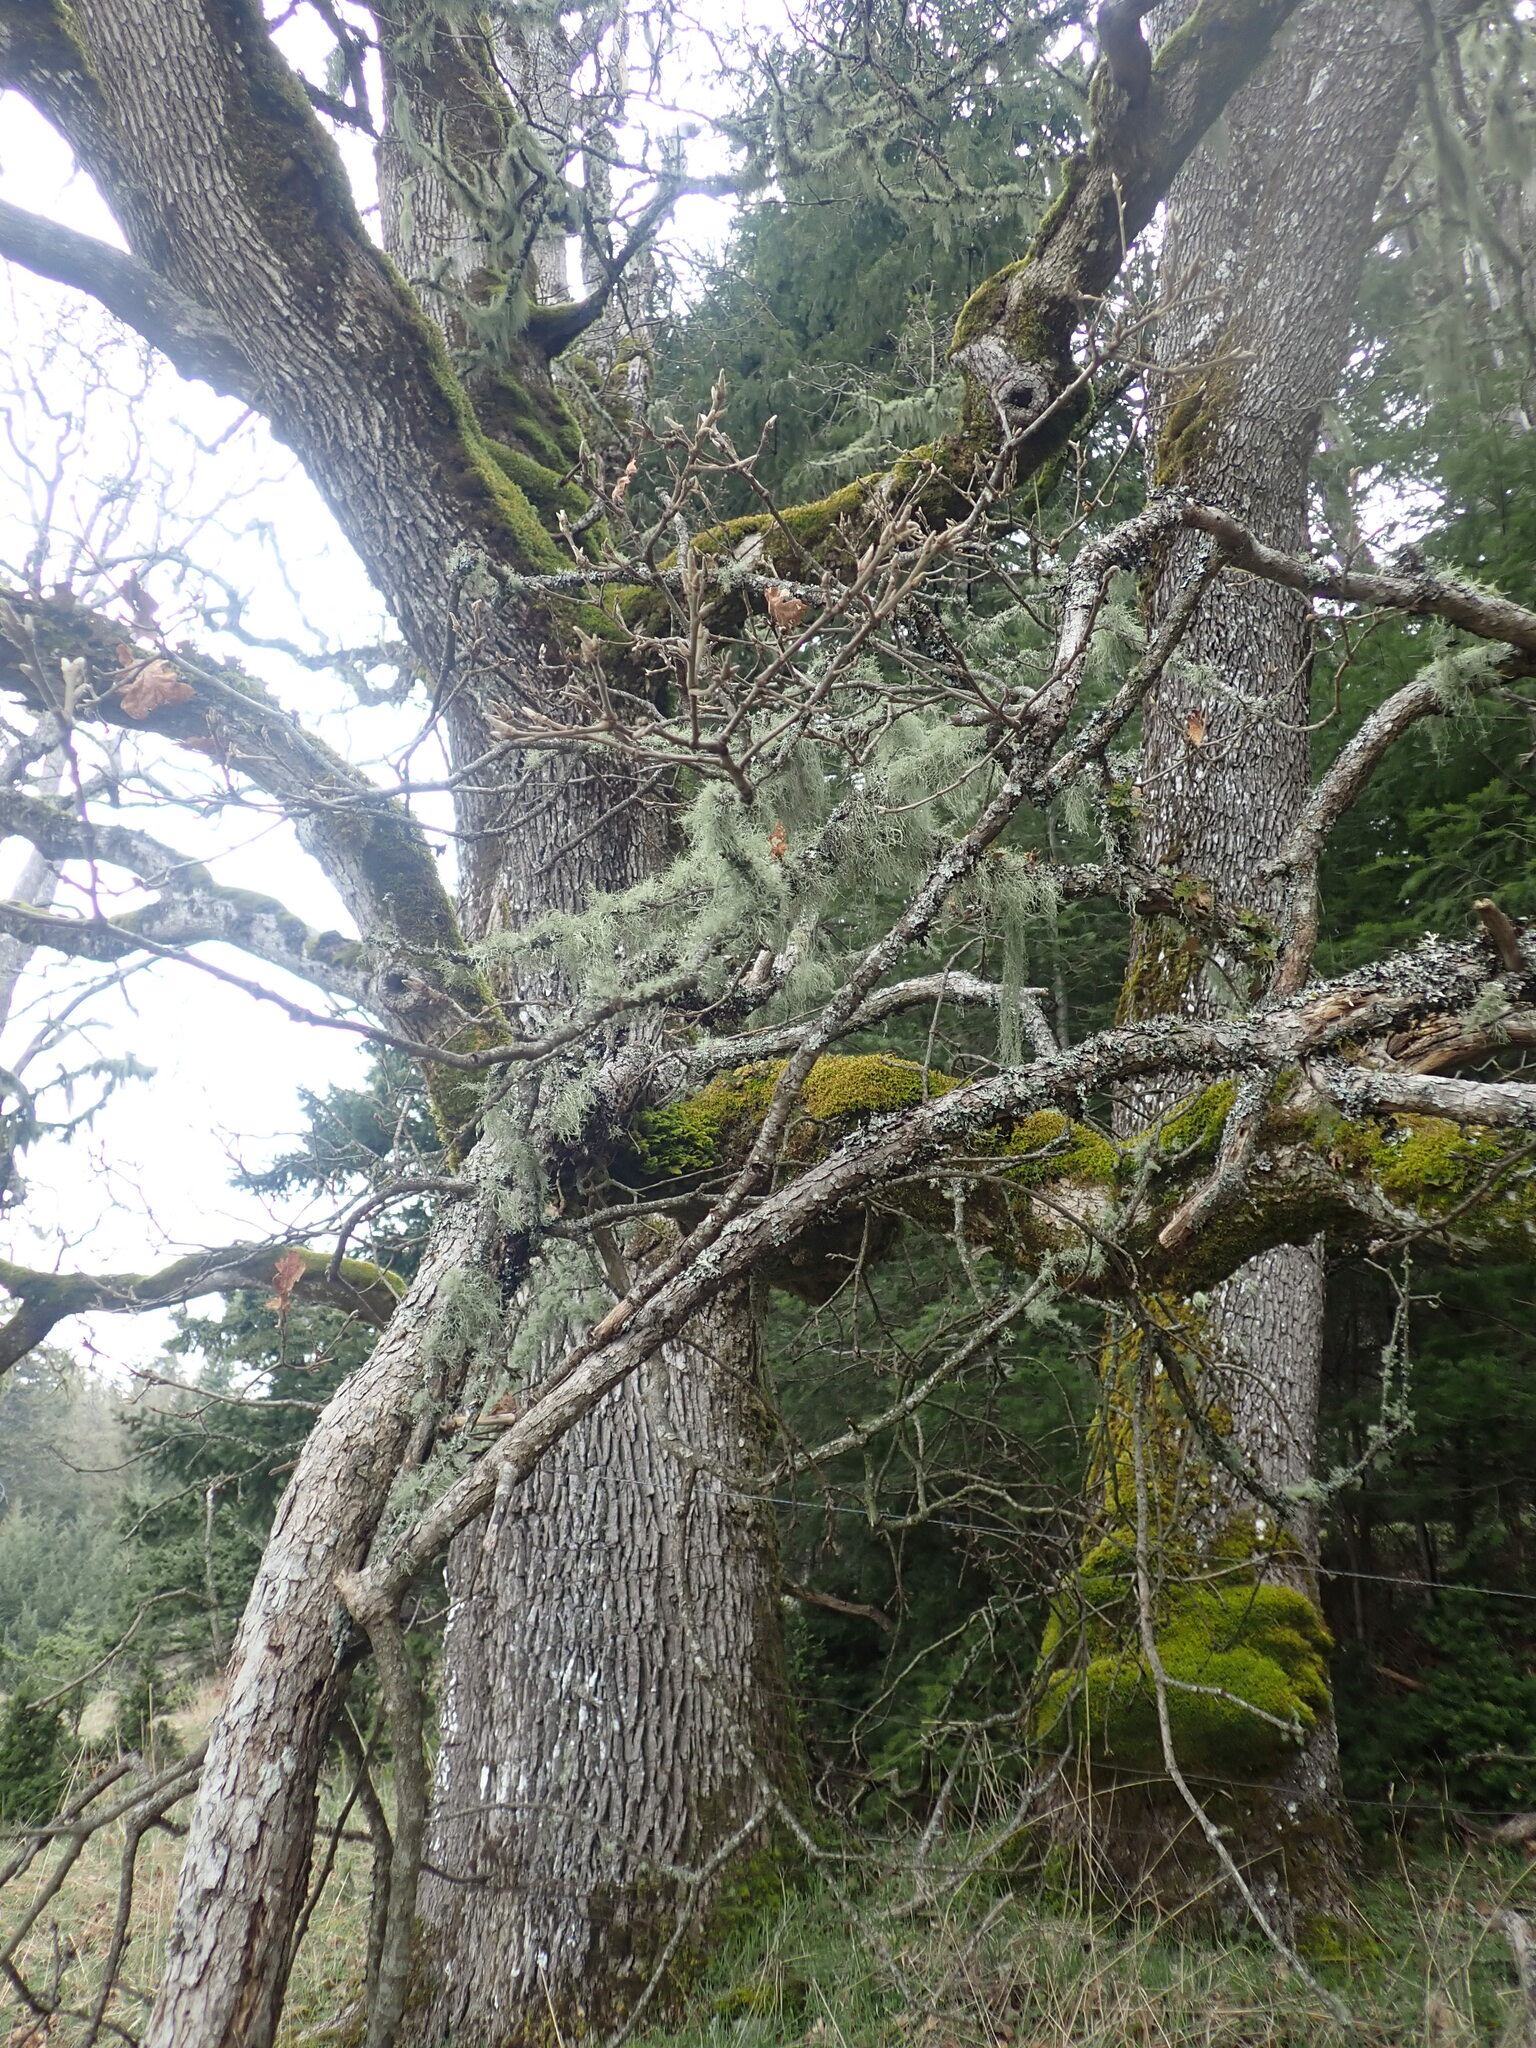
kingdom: Plantae
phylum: Tracheophyta
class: Magnoliopsida
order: Fagales
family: Fagaceae
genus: Quercus
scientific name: Quercus garryana
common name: Garry oak
